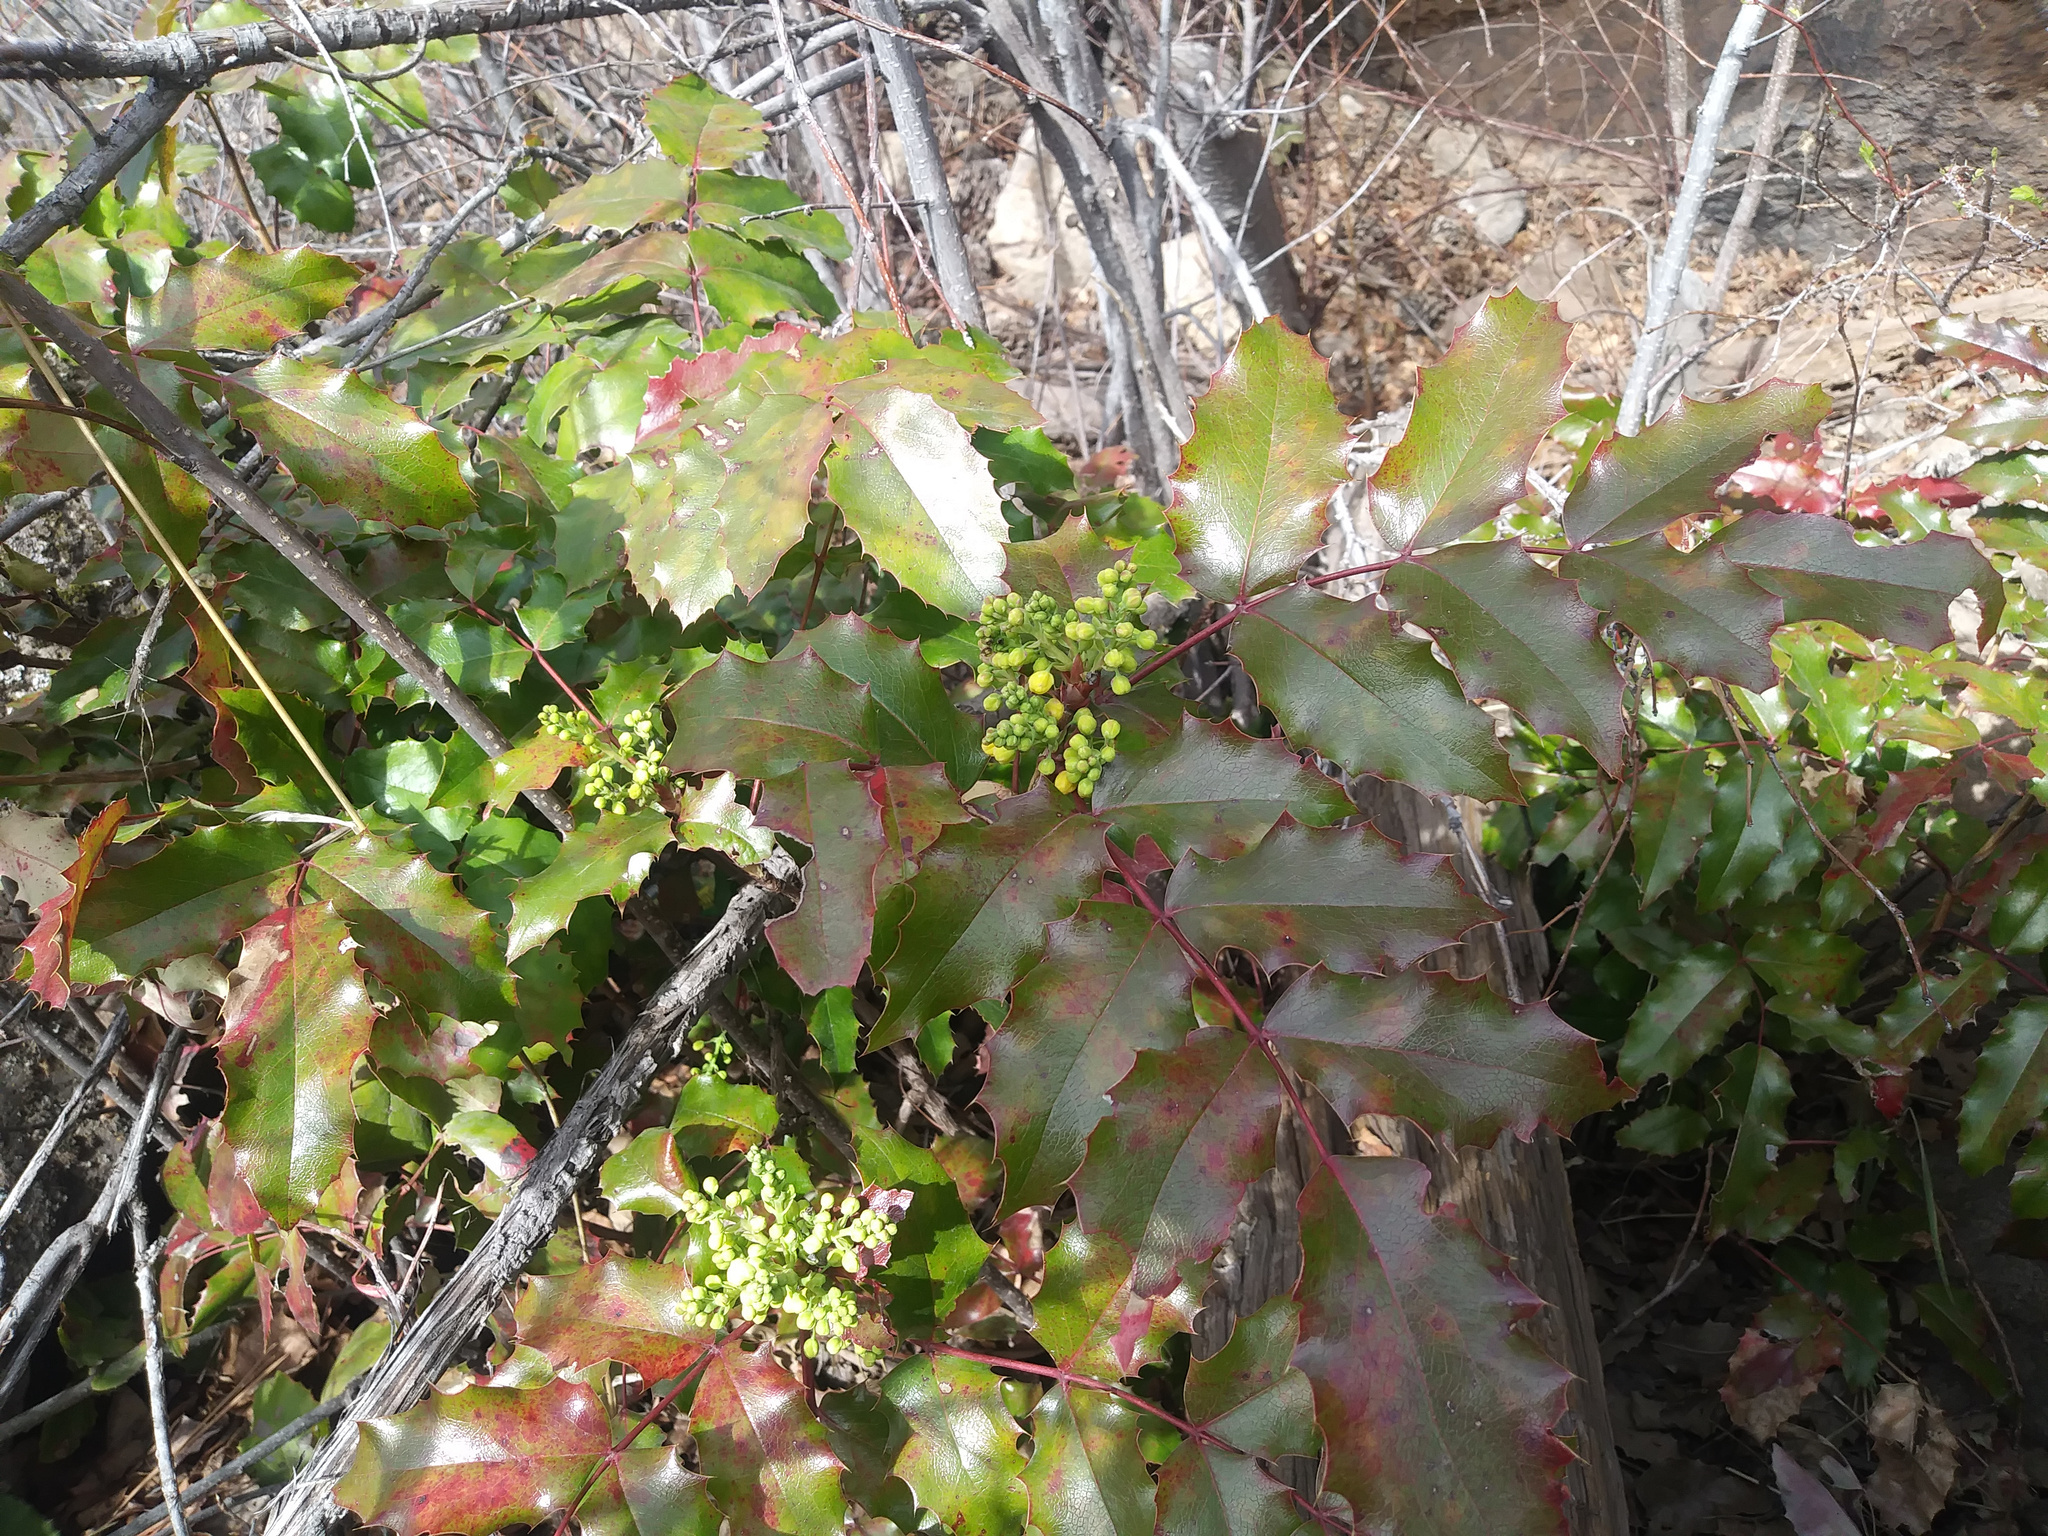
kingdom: Plantae
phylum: Tracheophyta
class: Magnoliopsida
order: Ranunculales
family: Berberidaceae
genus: Mahonia
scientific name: Mahonia aquifolium
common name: Oregon-grape
